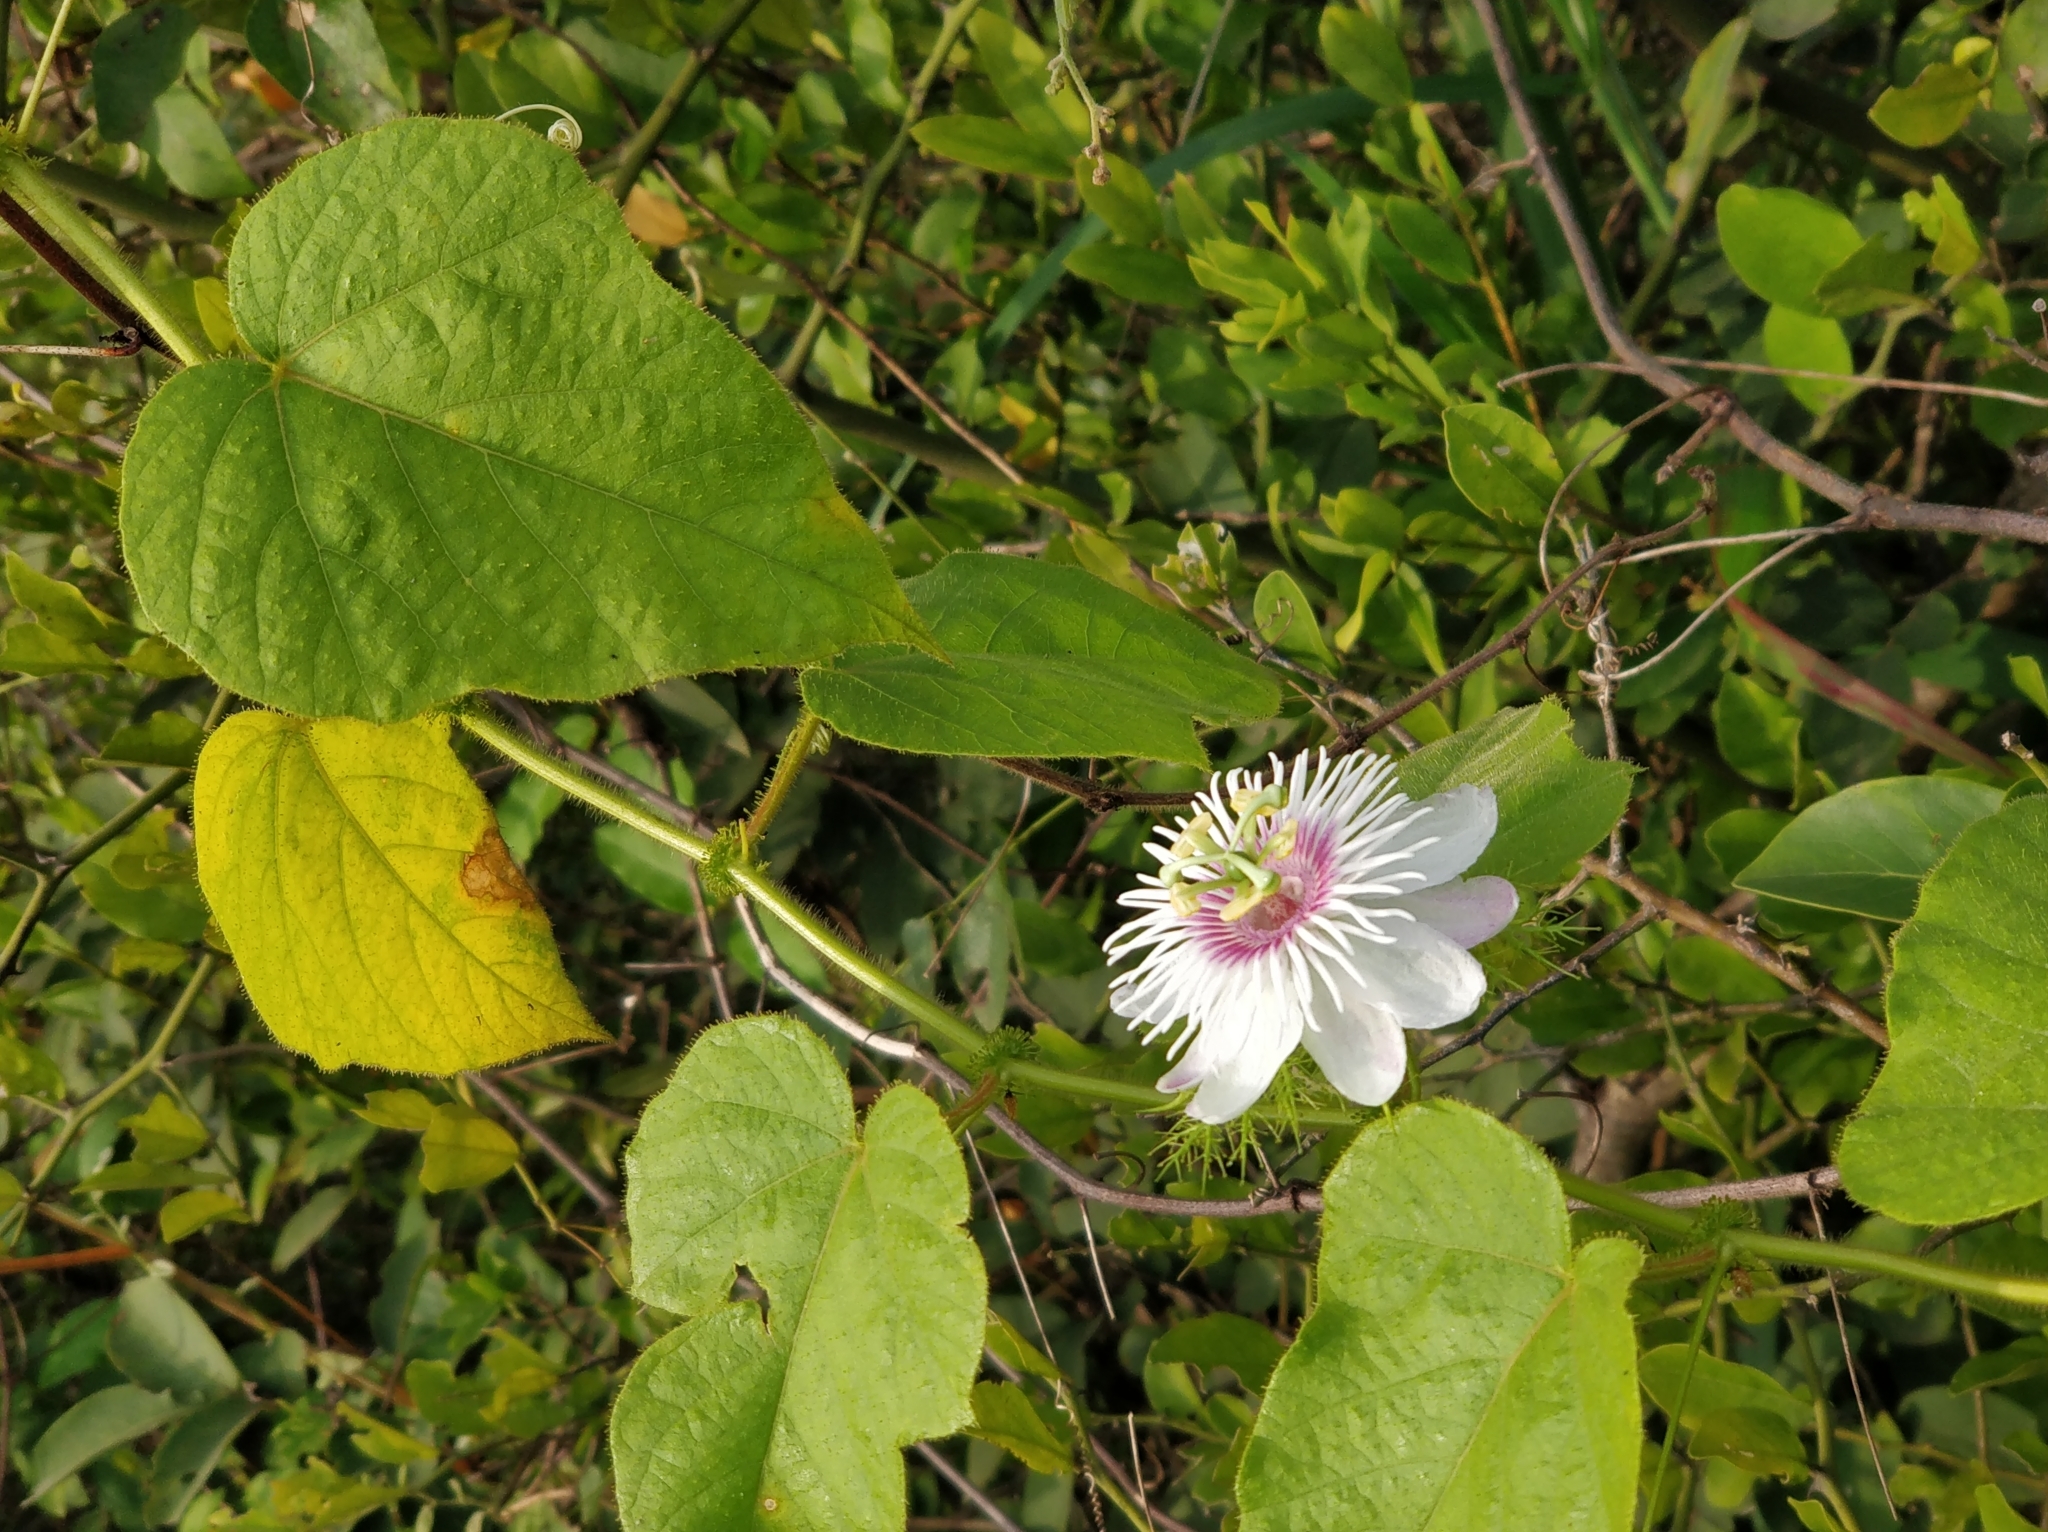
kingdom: Plantae
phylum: Tracheophyta
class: Magnoliopsida
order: Malpighiales
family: Passifloraceae
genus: Passiflora
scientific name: Passiflora foetida
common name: Fetid passionflower
